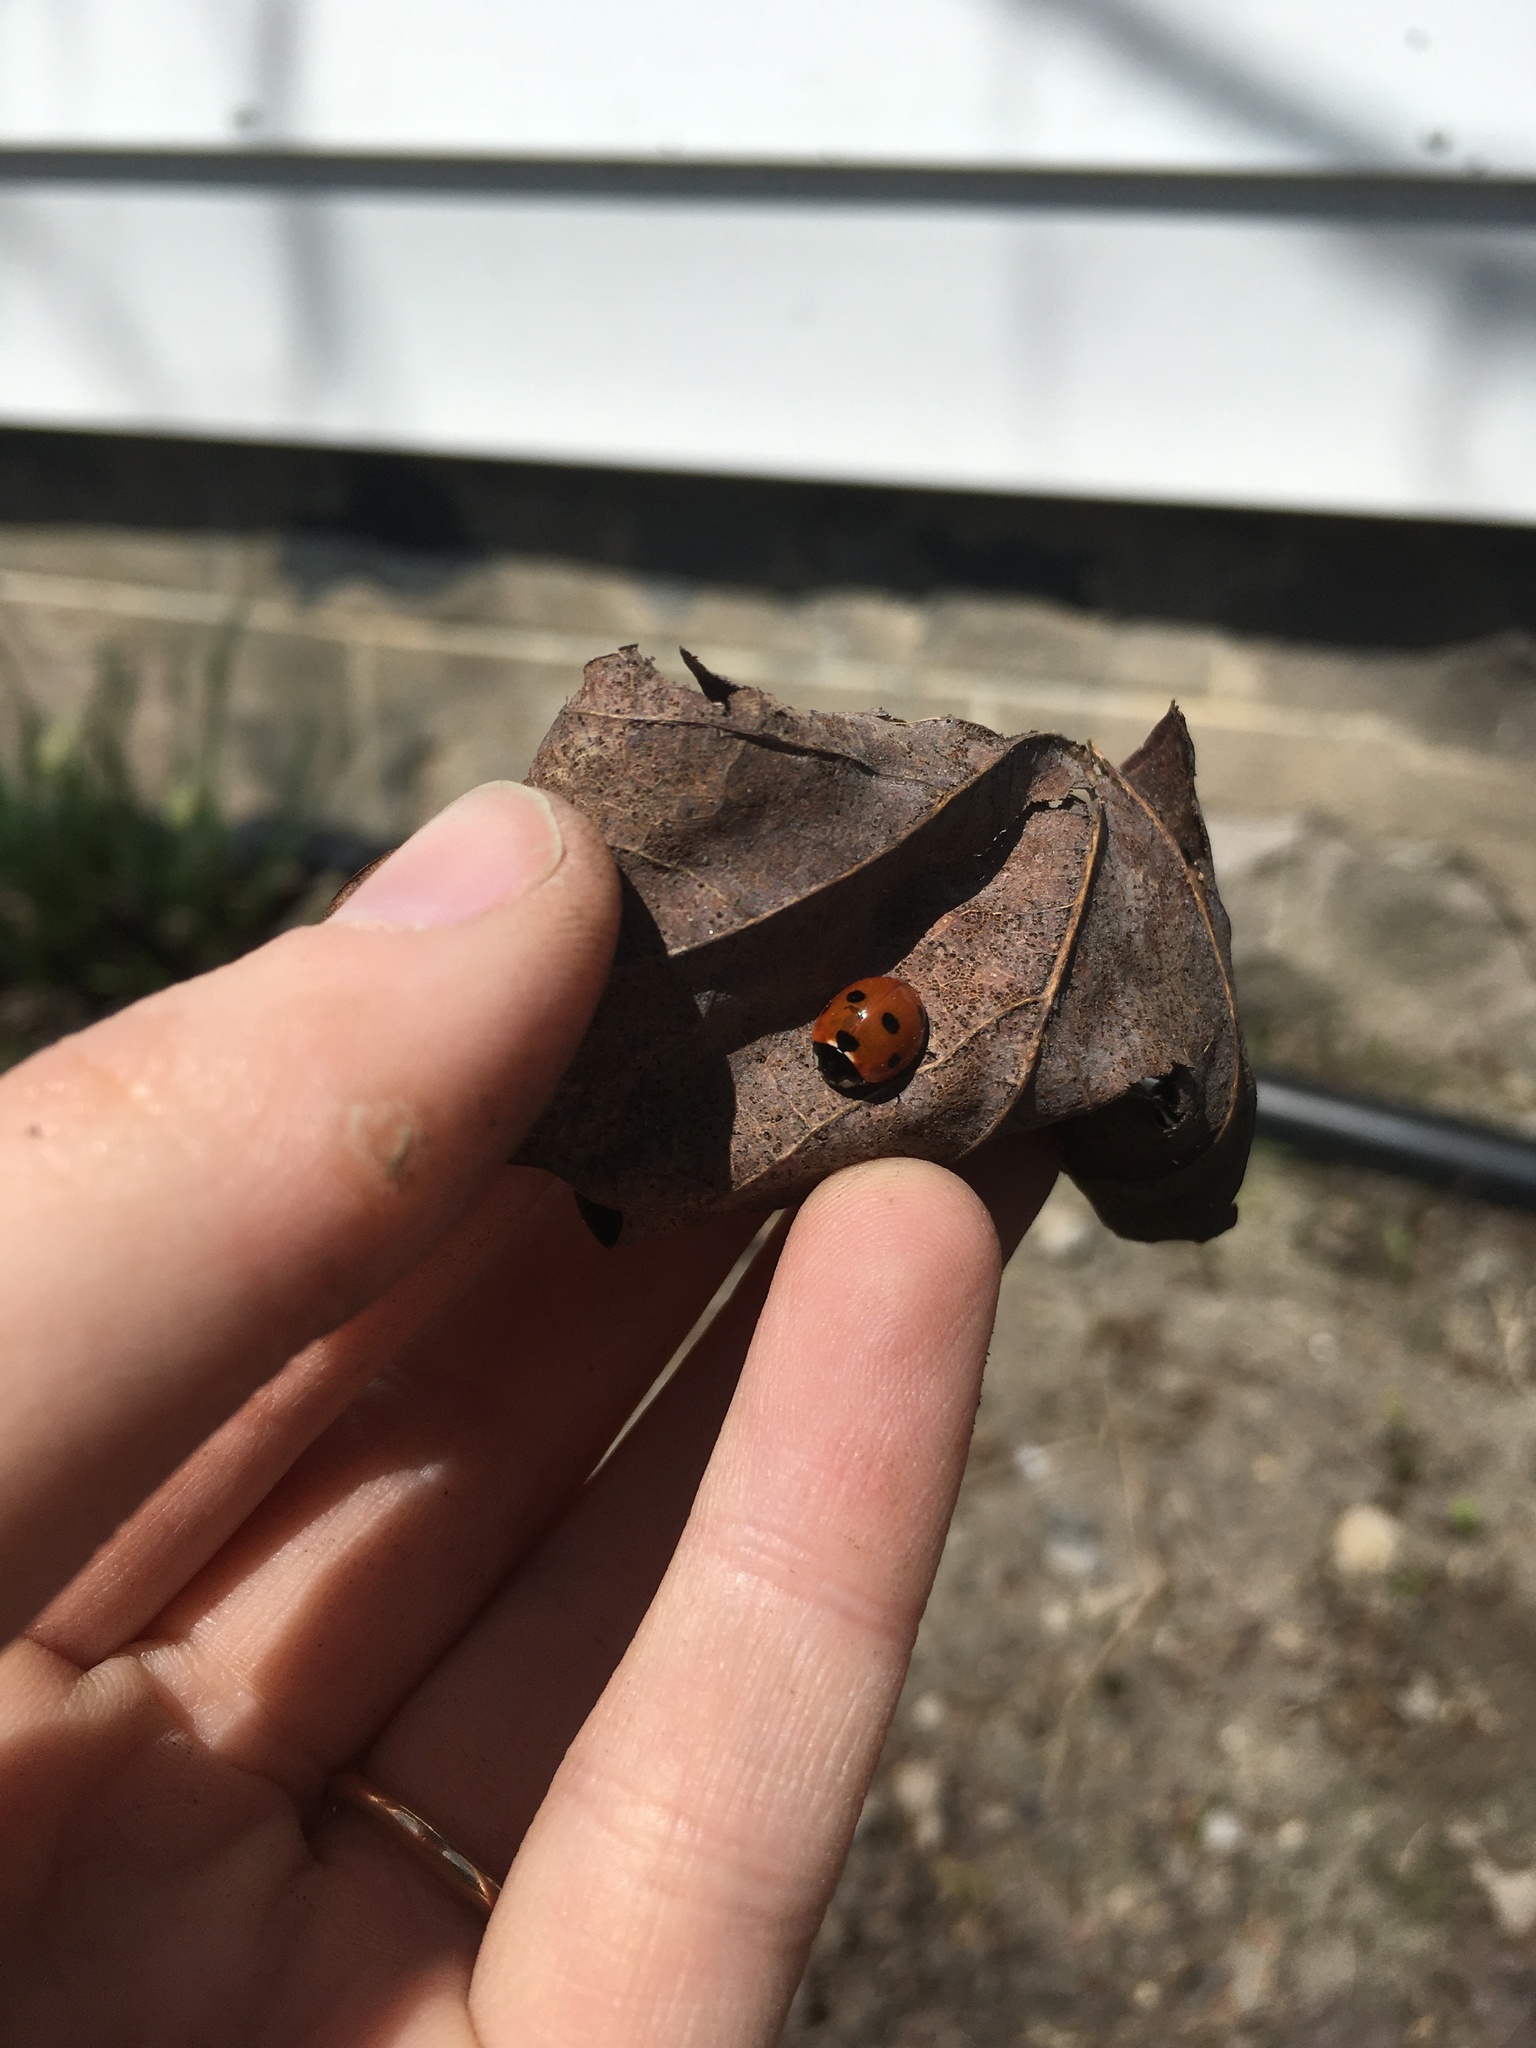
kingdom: Animalia
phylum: Arthropoda
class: Insecta
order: Coleoptera
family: Coccinellidae
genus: Coccinella
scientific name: Coccinella septempunctata
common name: Sevenspotted lady beetle
